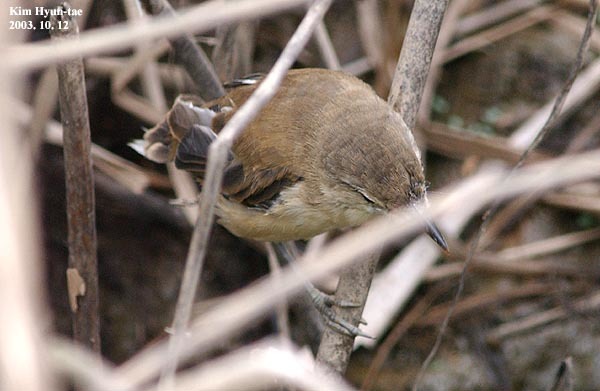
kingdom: Animalia
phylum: Chordata
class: Aves
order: Passeriformes
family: Acrocephalidae
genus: Acrocephalus
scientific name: Acrocephalus orientalis
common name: Oriental reed warbler
